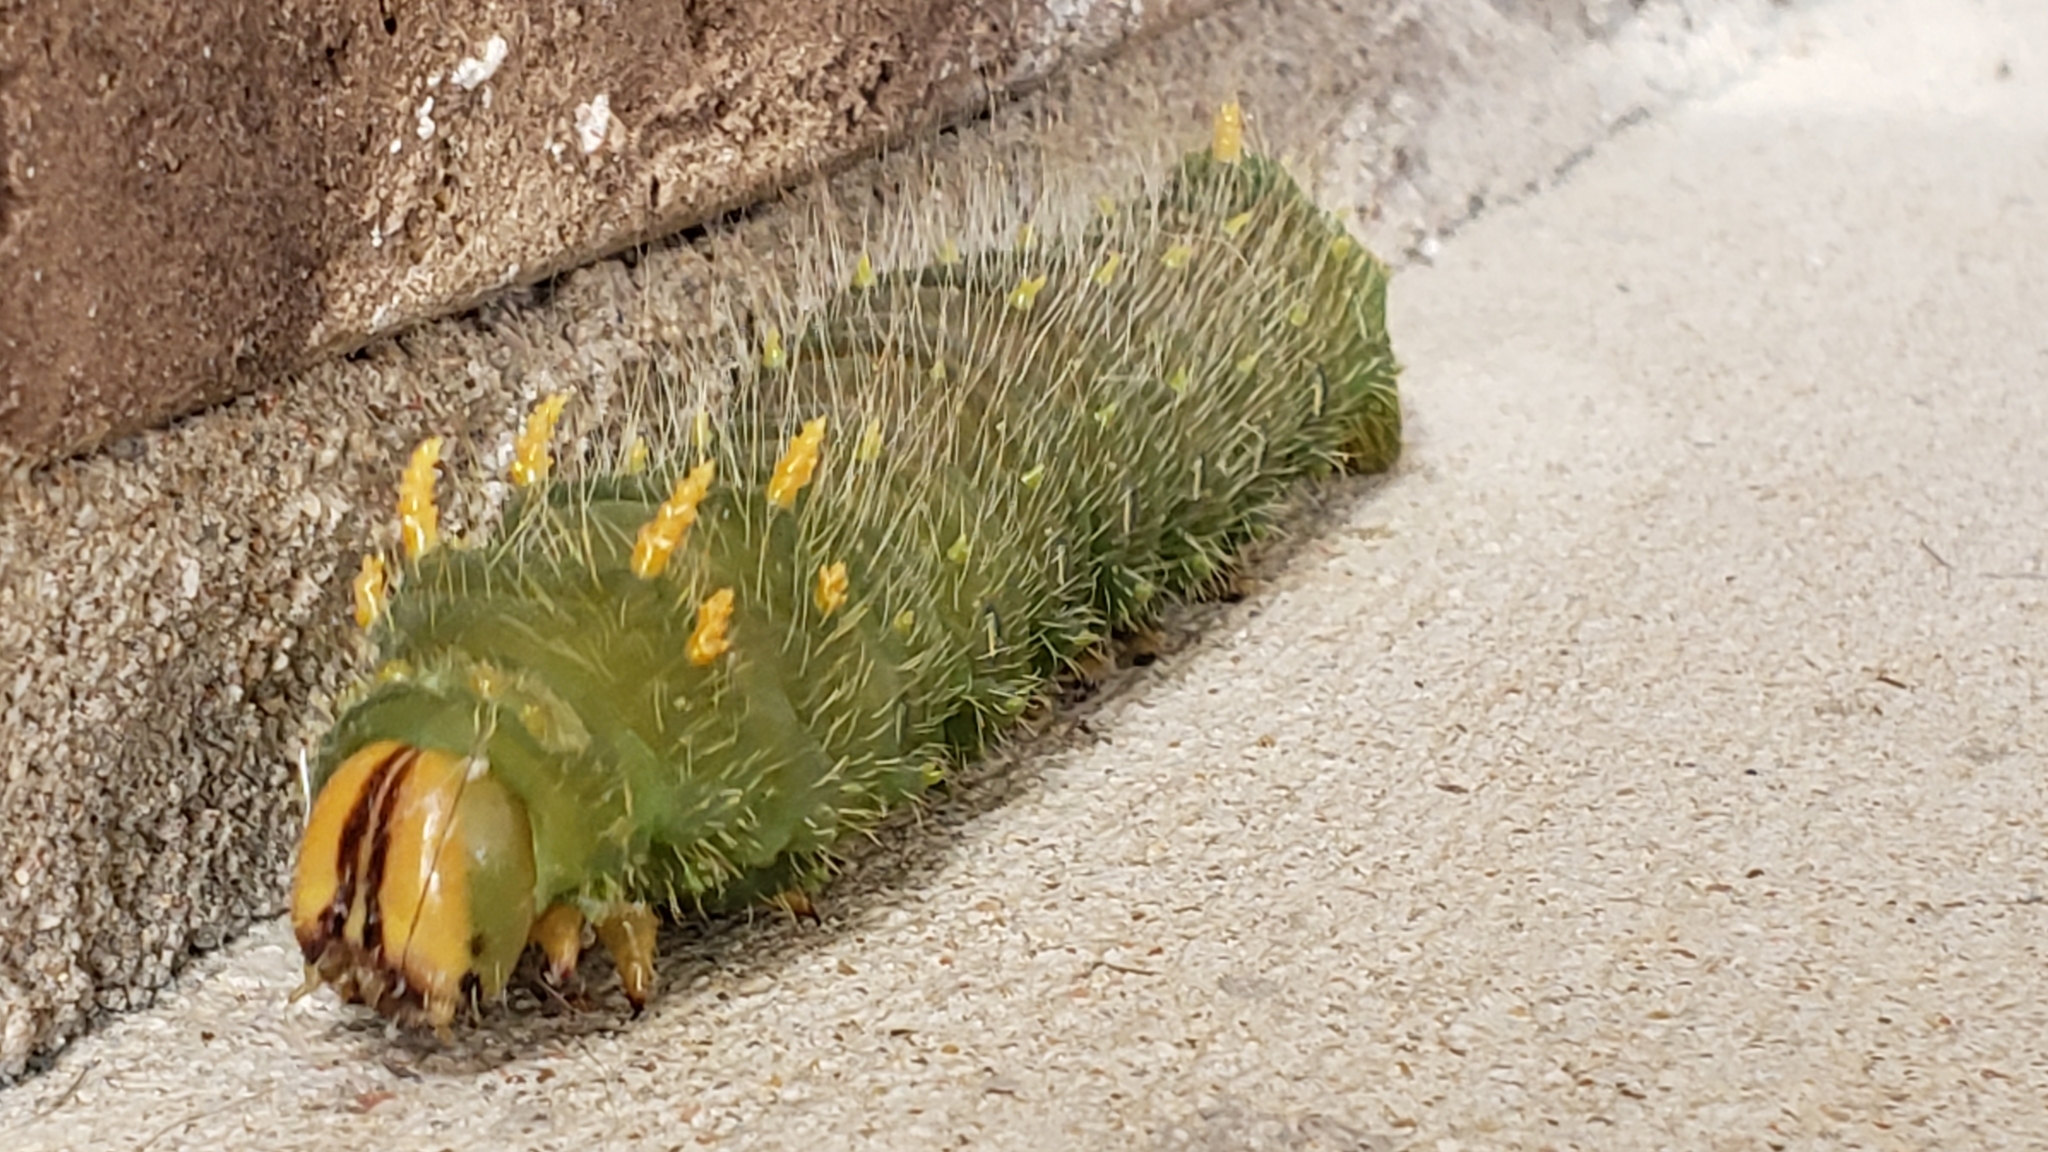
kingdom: Animalia
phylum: Arthropoda
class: Insecta
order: Lepidoptera
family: Saturniidae
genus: Eacles
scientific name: Eacles imperialis
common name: Imperial moth
